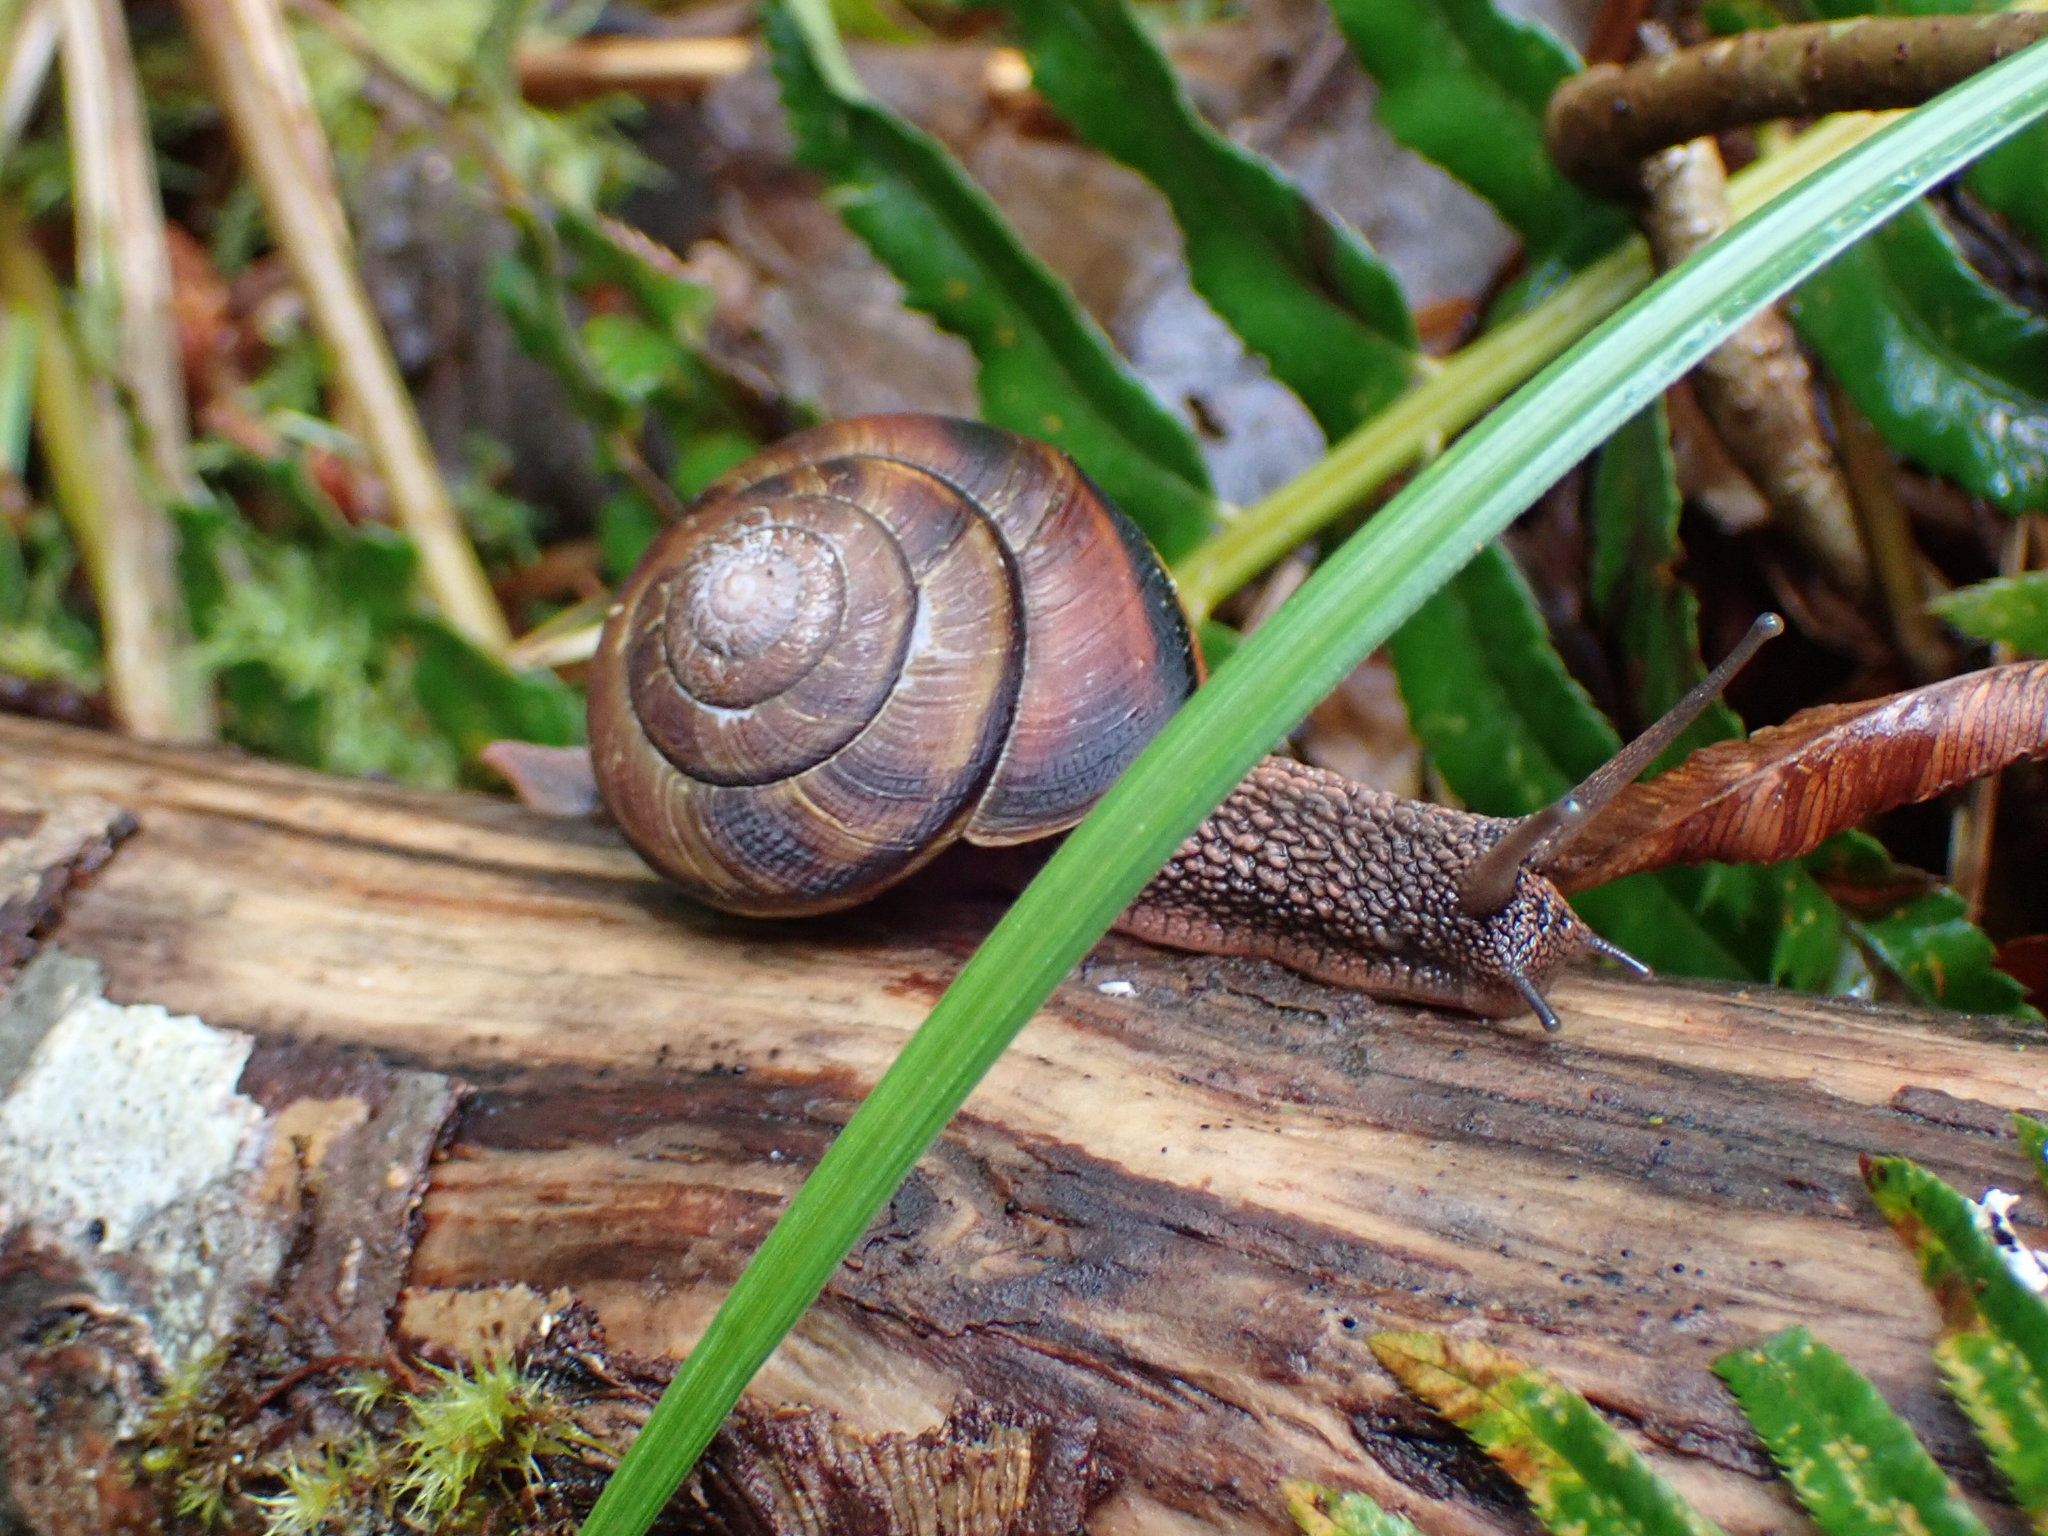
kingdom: Animalia
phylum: Mollusca
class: Gastropoda
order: Stylommatophora
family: Xanthonychidae
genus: Monadenia
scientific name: Monadenia fidelis
